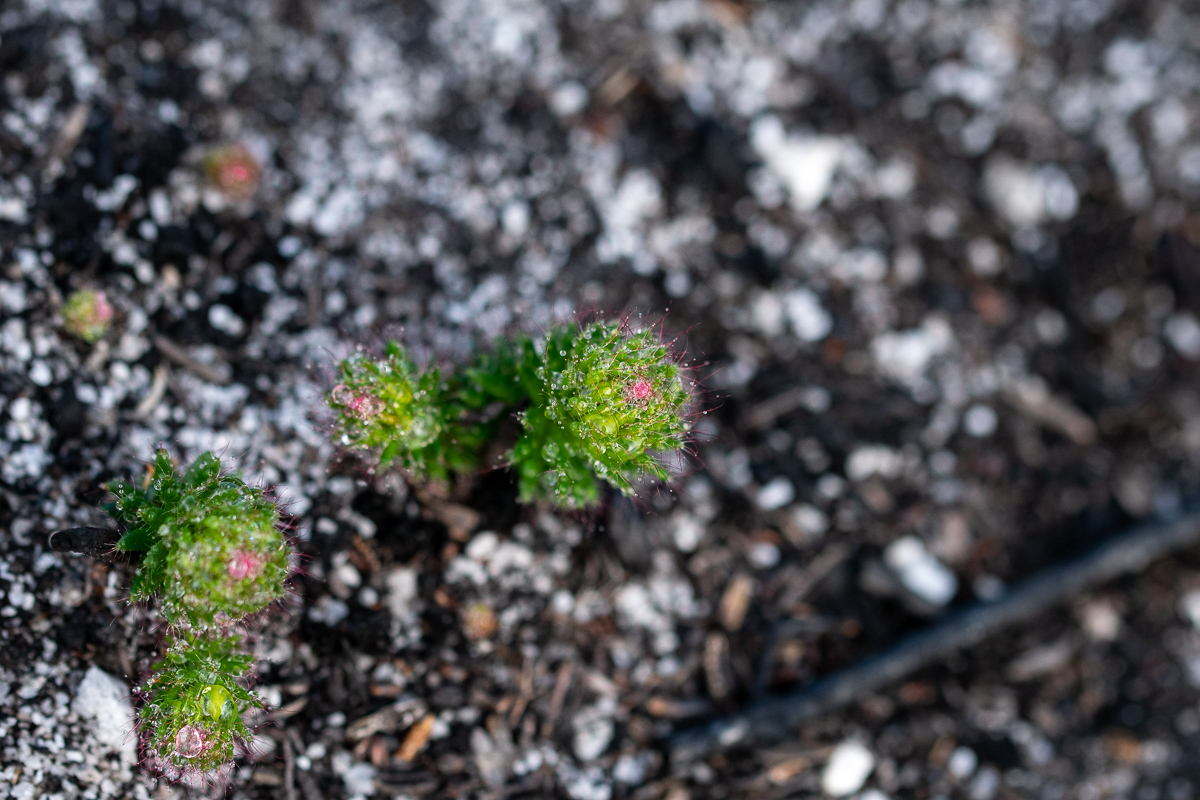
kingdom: Plantae
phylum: Tracheophyta
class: Magnoliopsida
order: Ericales
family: Ericaceae
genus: Erica
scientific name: Erica cerinthoides
